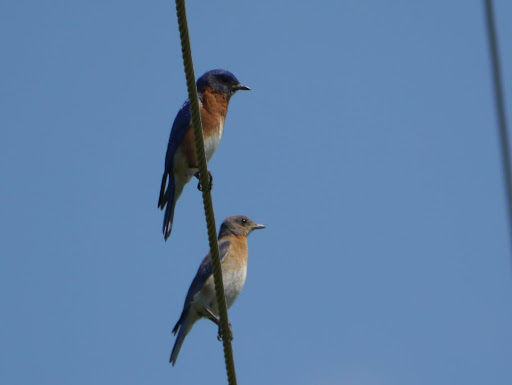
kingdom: Animalia
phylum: Chordata
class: Aves
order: Passeriformes
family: Turdidae
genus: Sialia
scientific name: Sialia sialis
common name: Eastern bluebird
